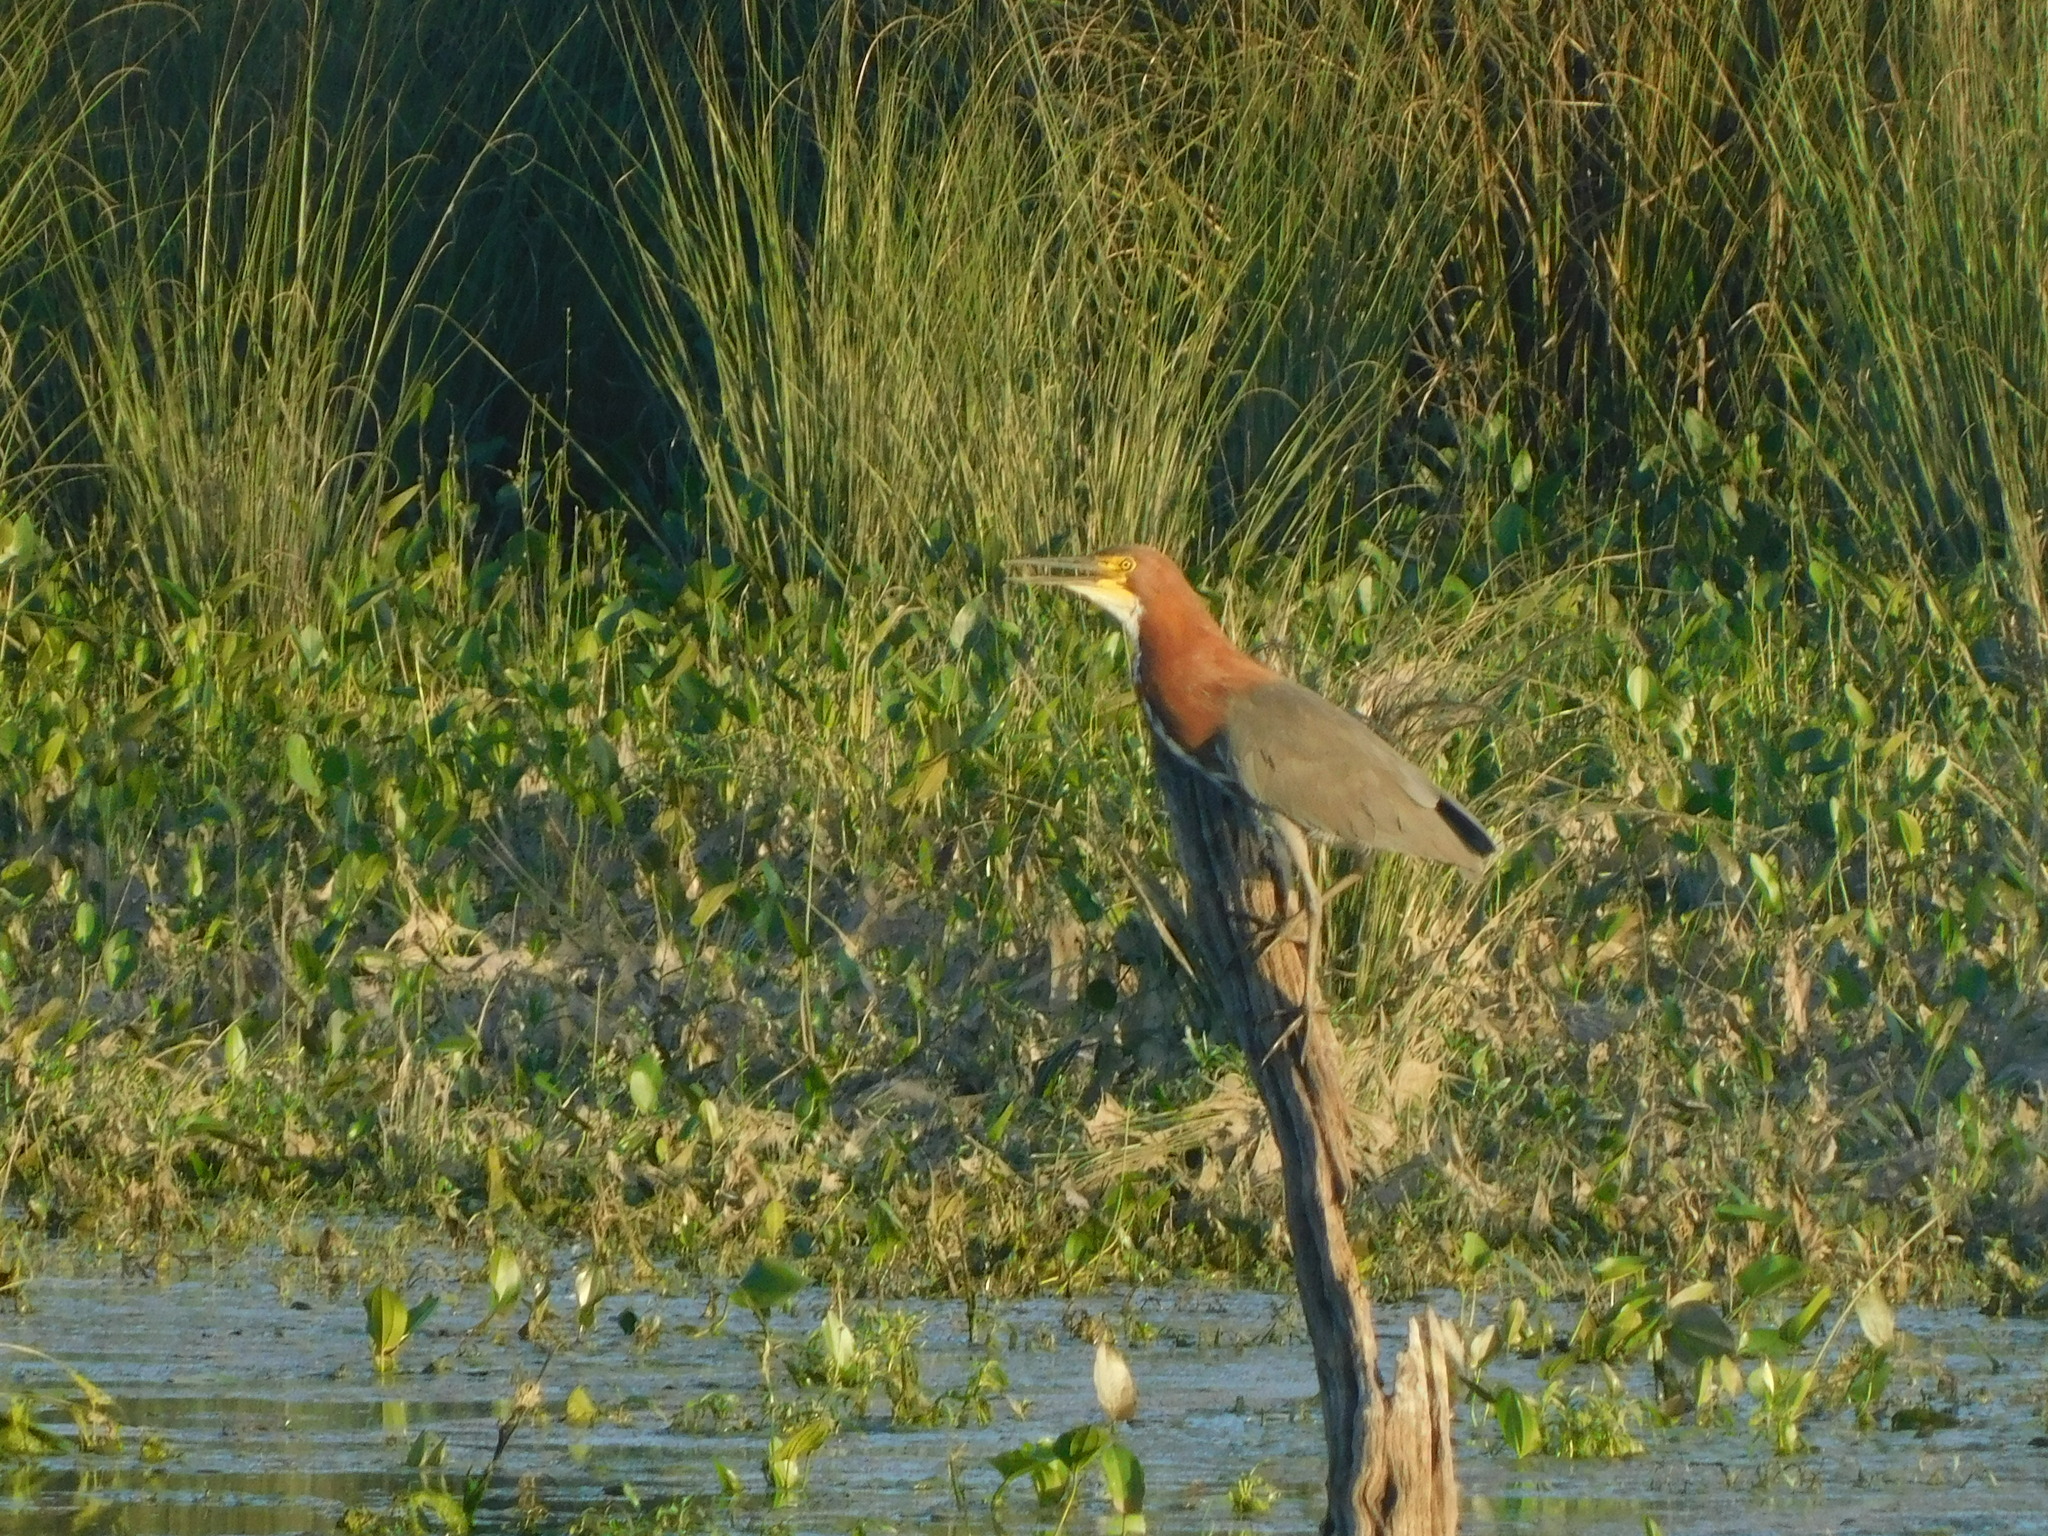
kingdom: Animalia
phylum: Chordata
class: Aves
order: Pelecaniformes
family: Ardeidae
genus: Tigrisoma
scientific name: Tigrisoma lineatum
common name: Rufescent tiger-heron
